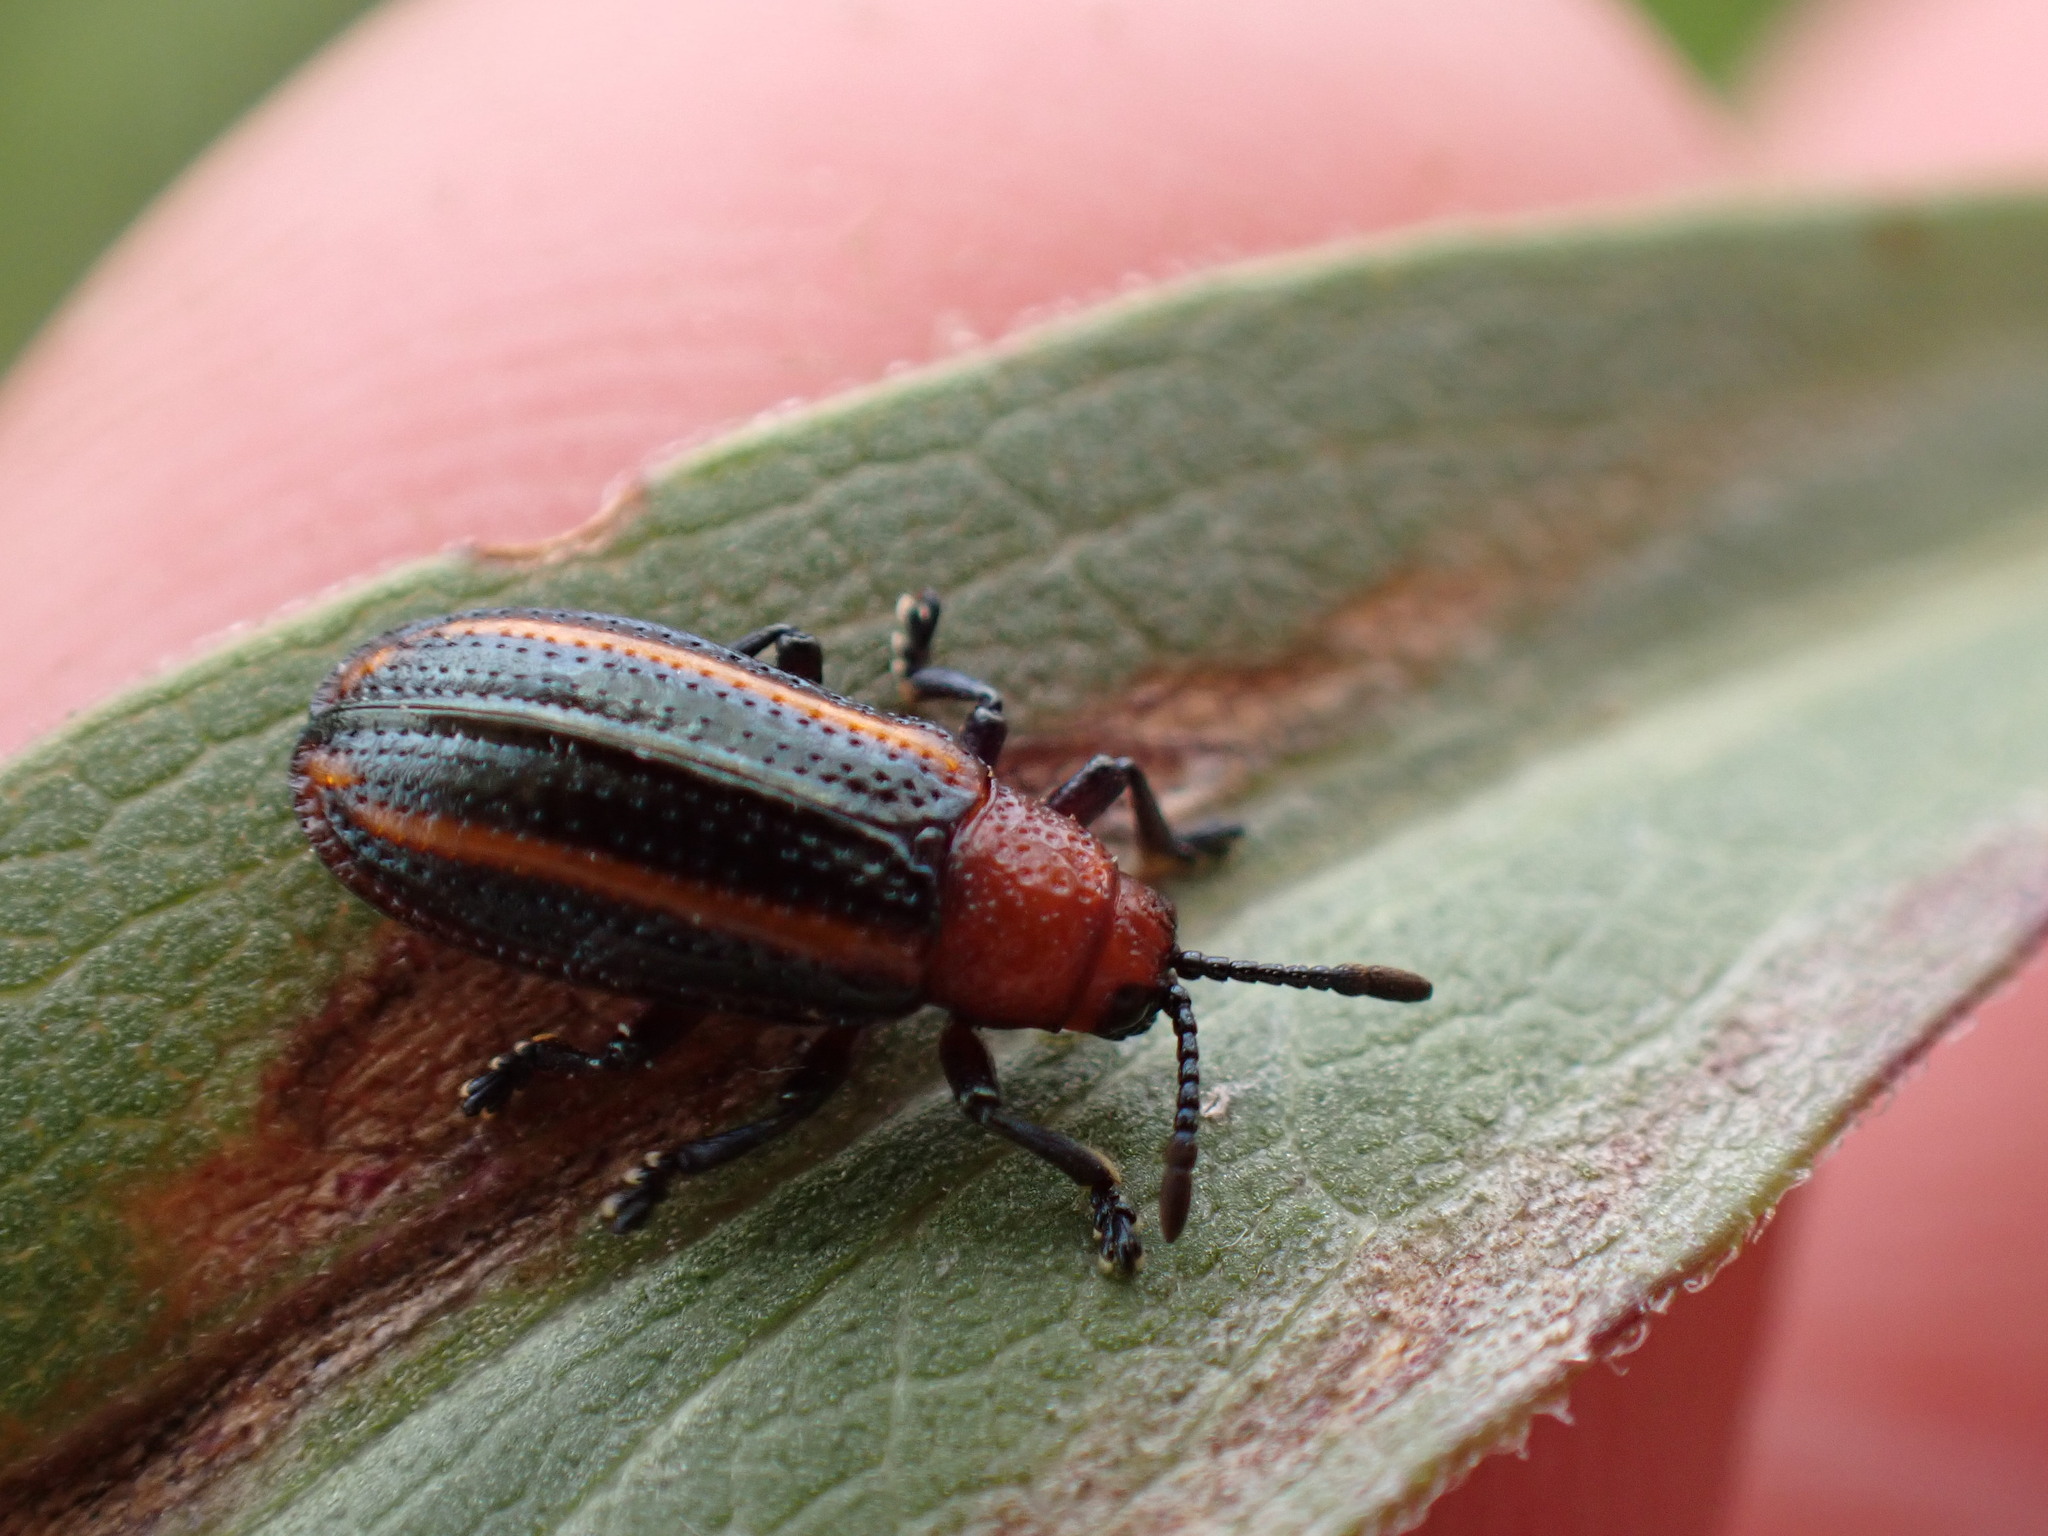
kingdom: Animalia
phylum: Arthropoda
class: Insecta
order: Coleoptera
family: Chrysomelidae
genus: Microrhopala
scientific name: Microrhopala vittata
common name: Goldenrod leaf miner beetle
